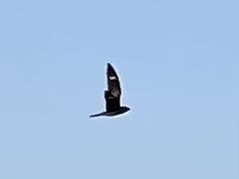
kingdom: Animalia
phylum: Chordata
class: Aves
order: Caprimulgiformes
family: Caprimulgidae
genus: Chordeiles
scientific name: Chordeiles minor
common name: Common nighthawk
